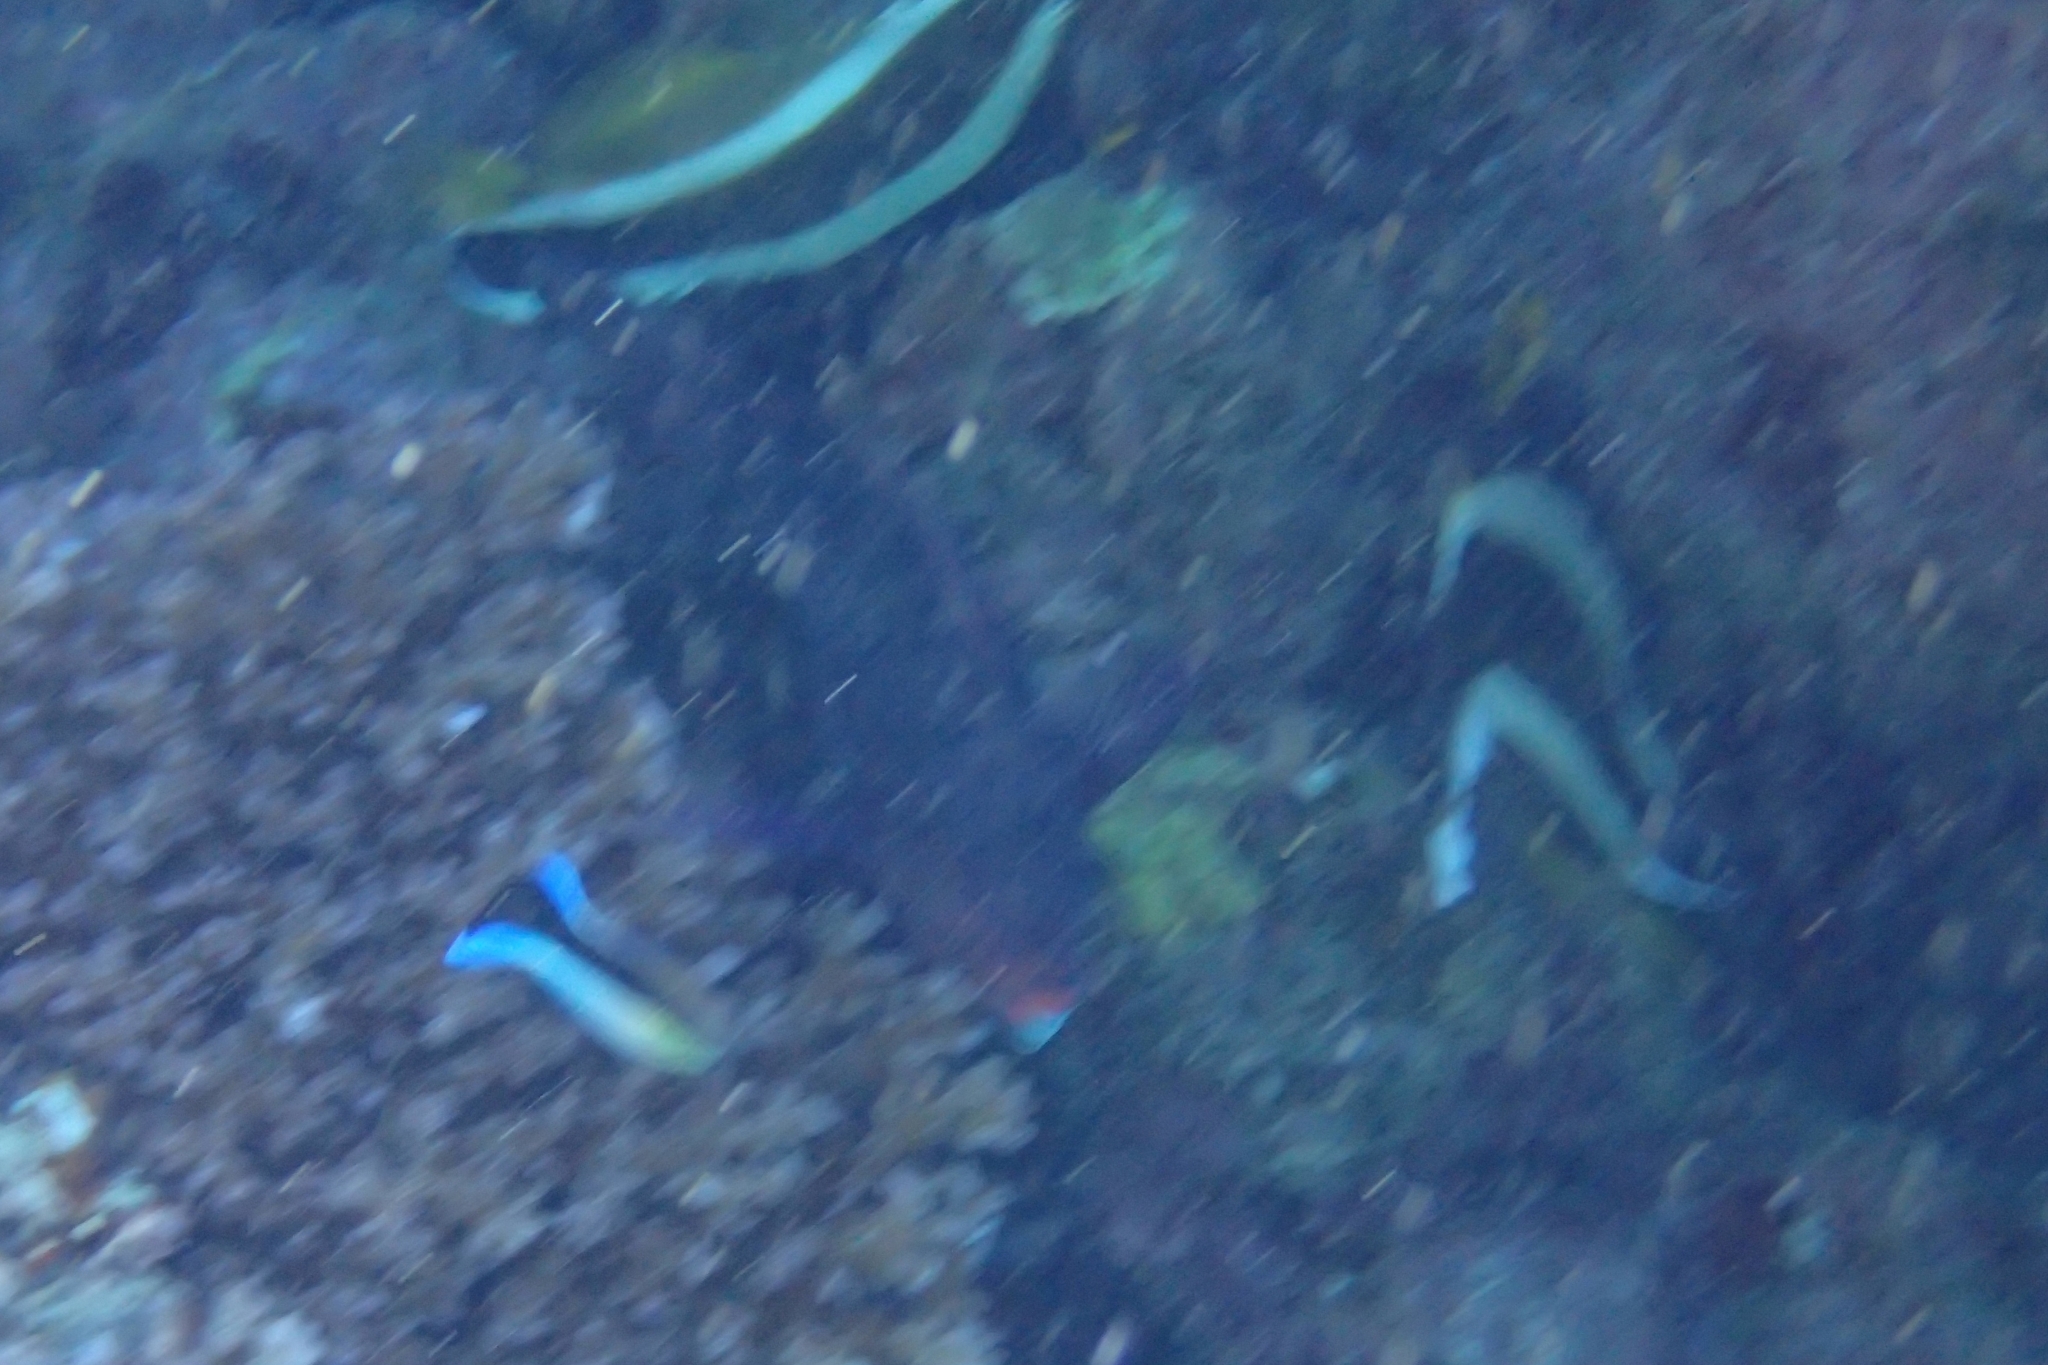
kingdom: Animalia
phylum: Chordata
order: Perciformes
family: Chaetodontidae
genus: Heniochus
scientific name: Heniochus chrysostomus
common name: Horned bannerfish
